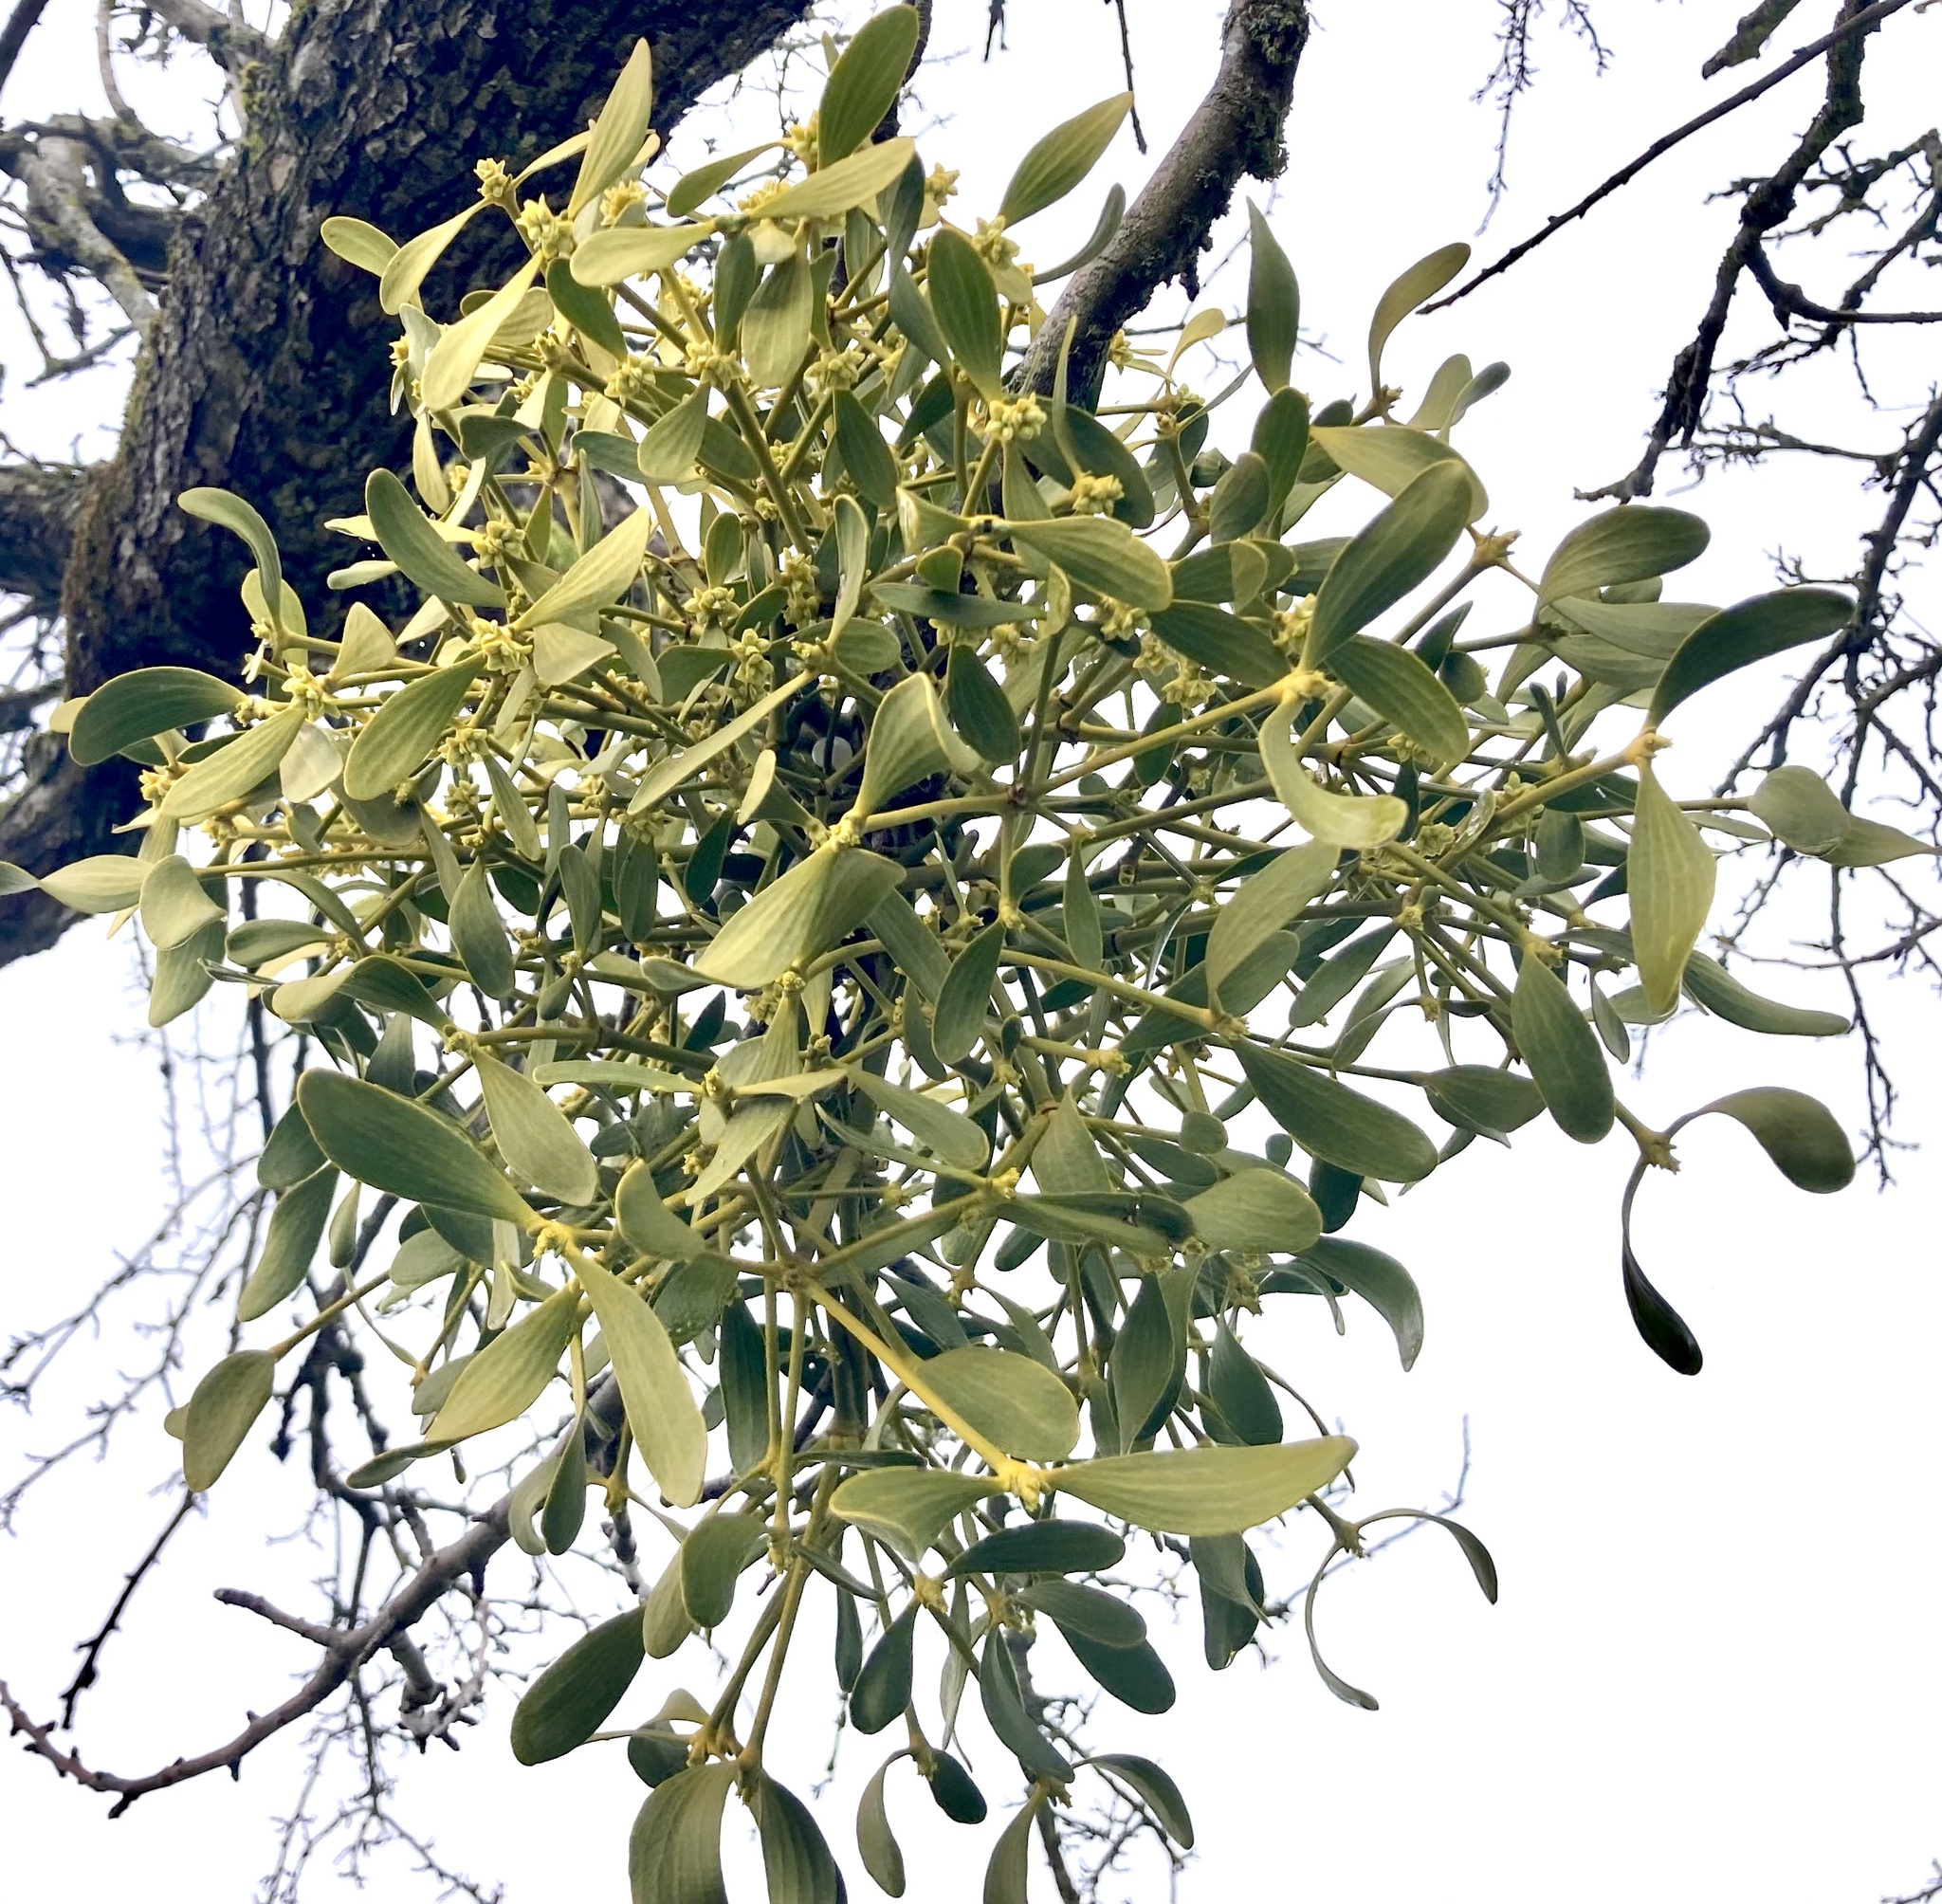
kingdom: Plantae
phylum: Tracheophyta
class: Magnoliopsida
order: Santalales
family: Viscaceae
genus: Viscum
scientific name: Viscum album
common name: Mistletoe
